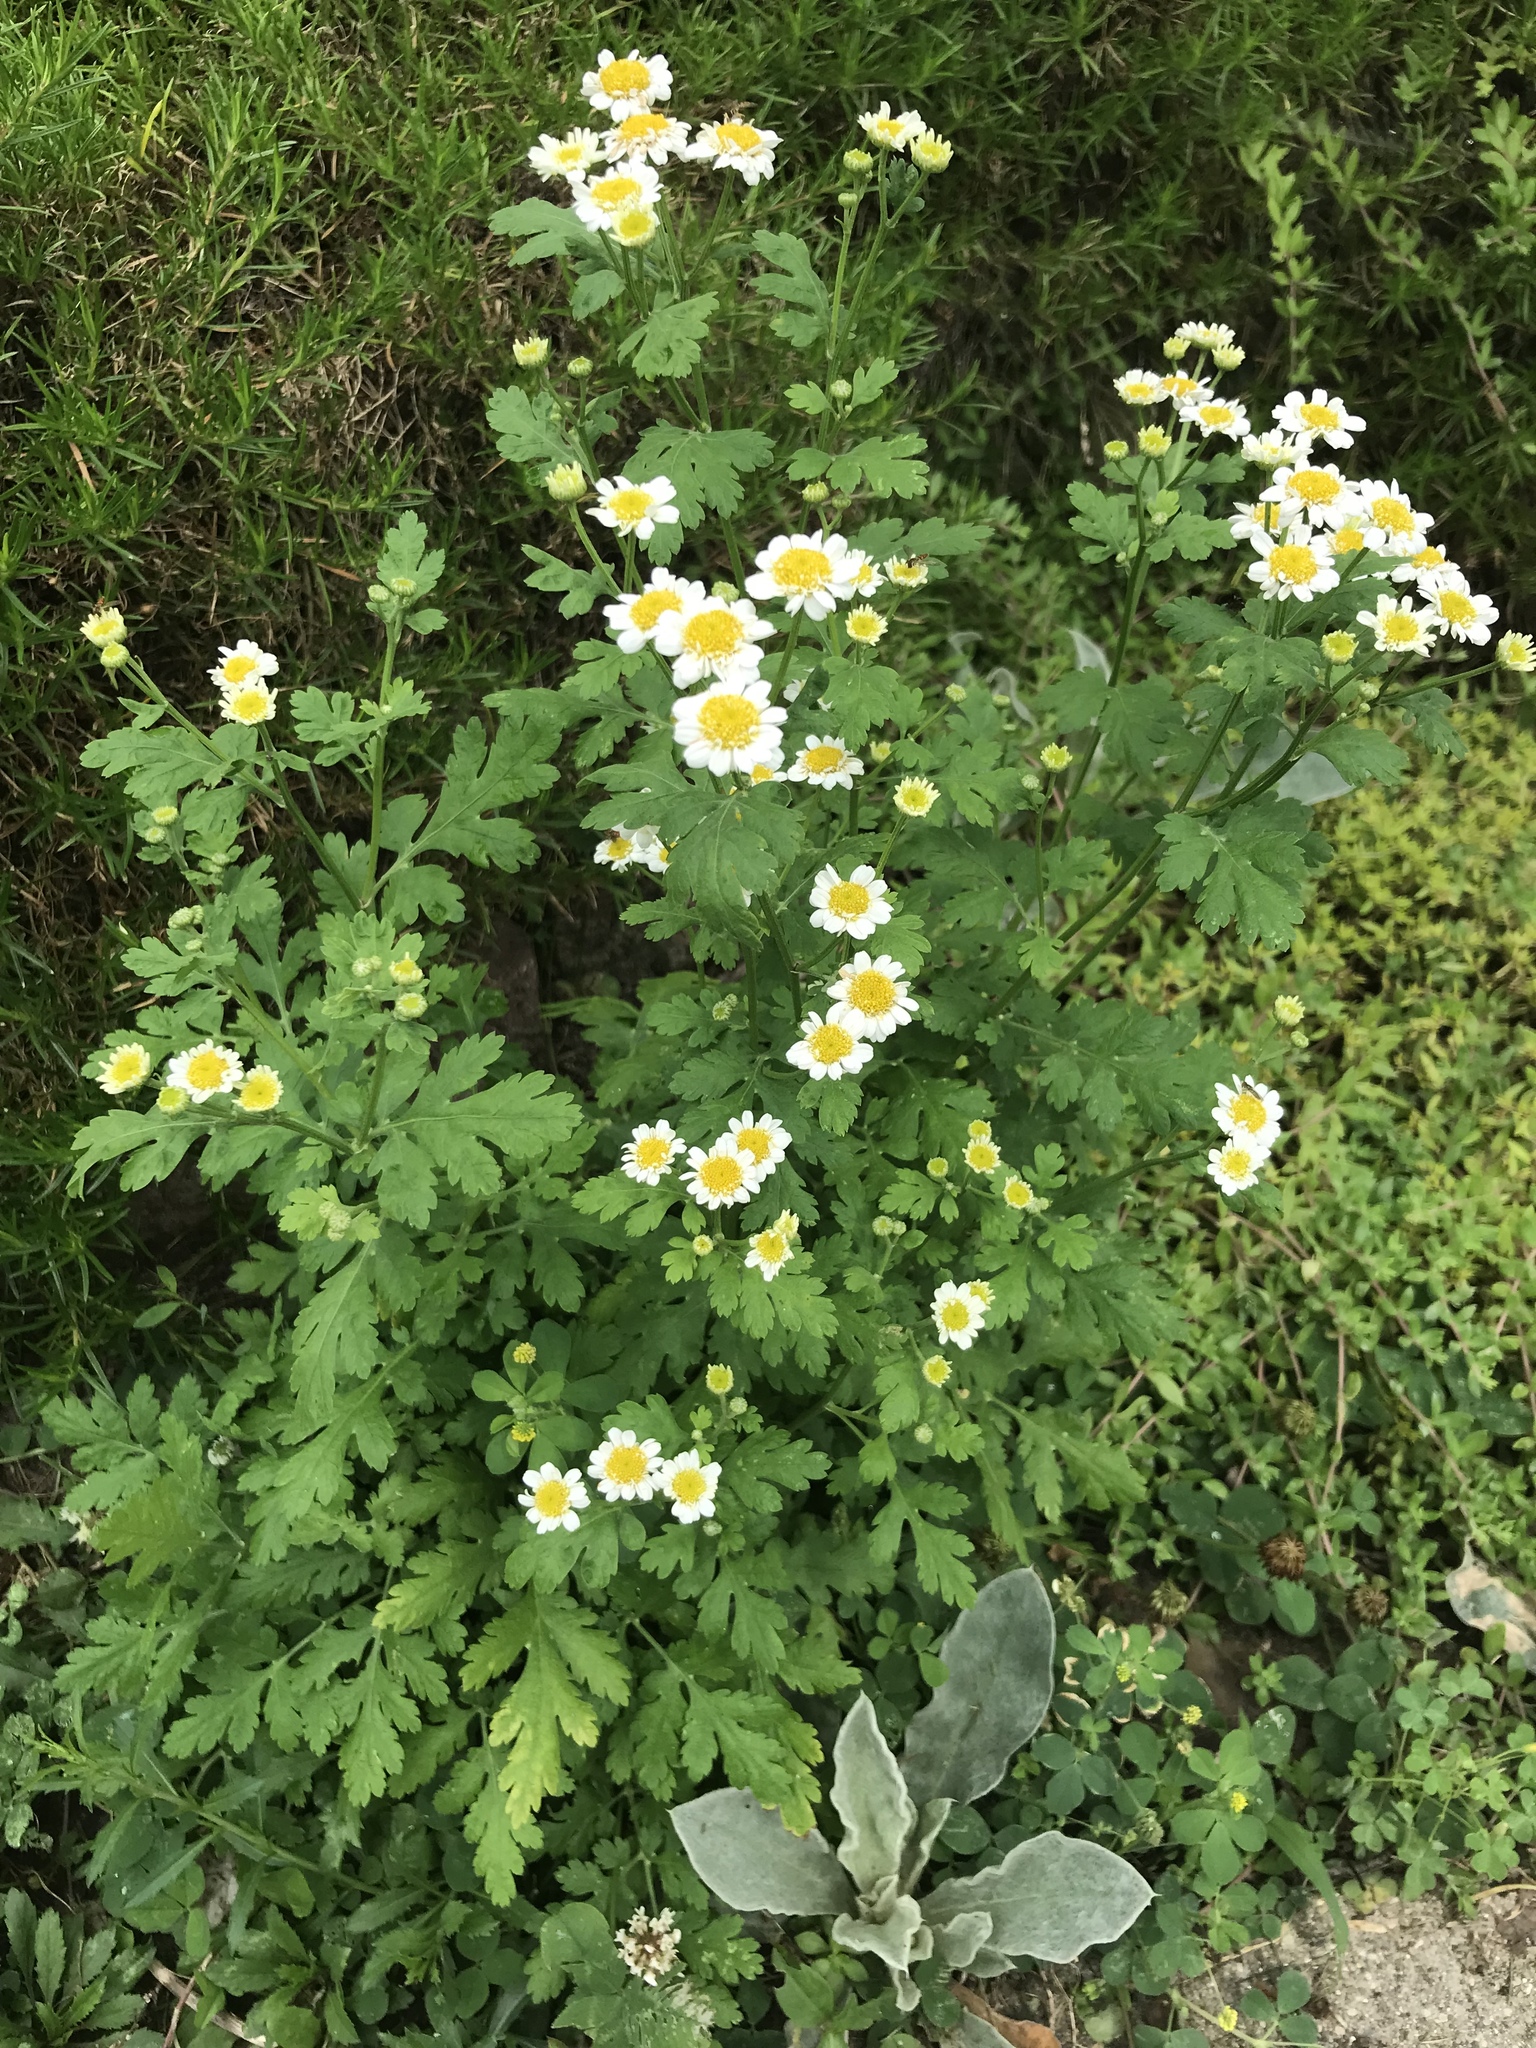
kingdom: Plantae
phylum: Tracheophyta
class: Magnoliopsida
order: Asterales
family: Asteraceae
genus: Tanacetum
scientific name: Tanacetum parthenium
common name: Feverfew
